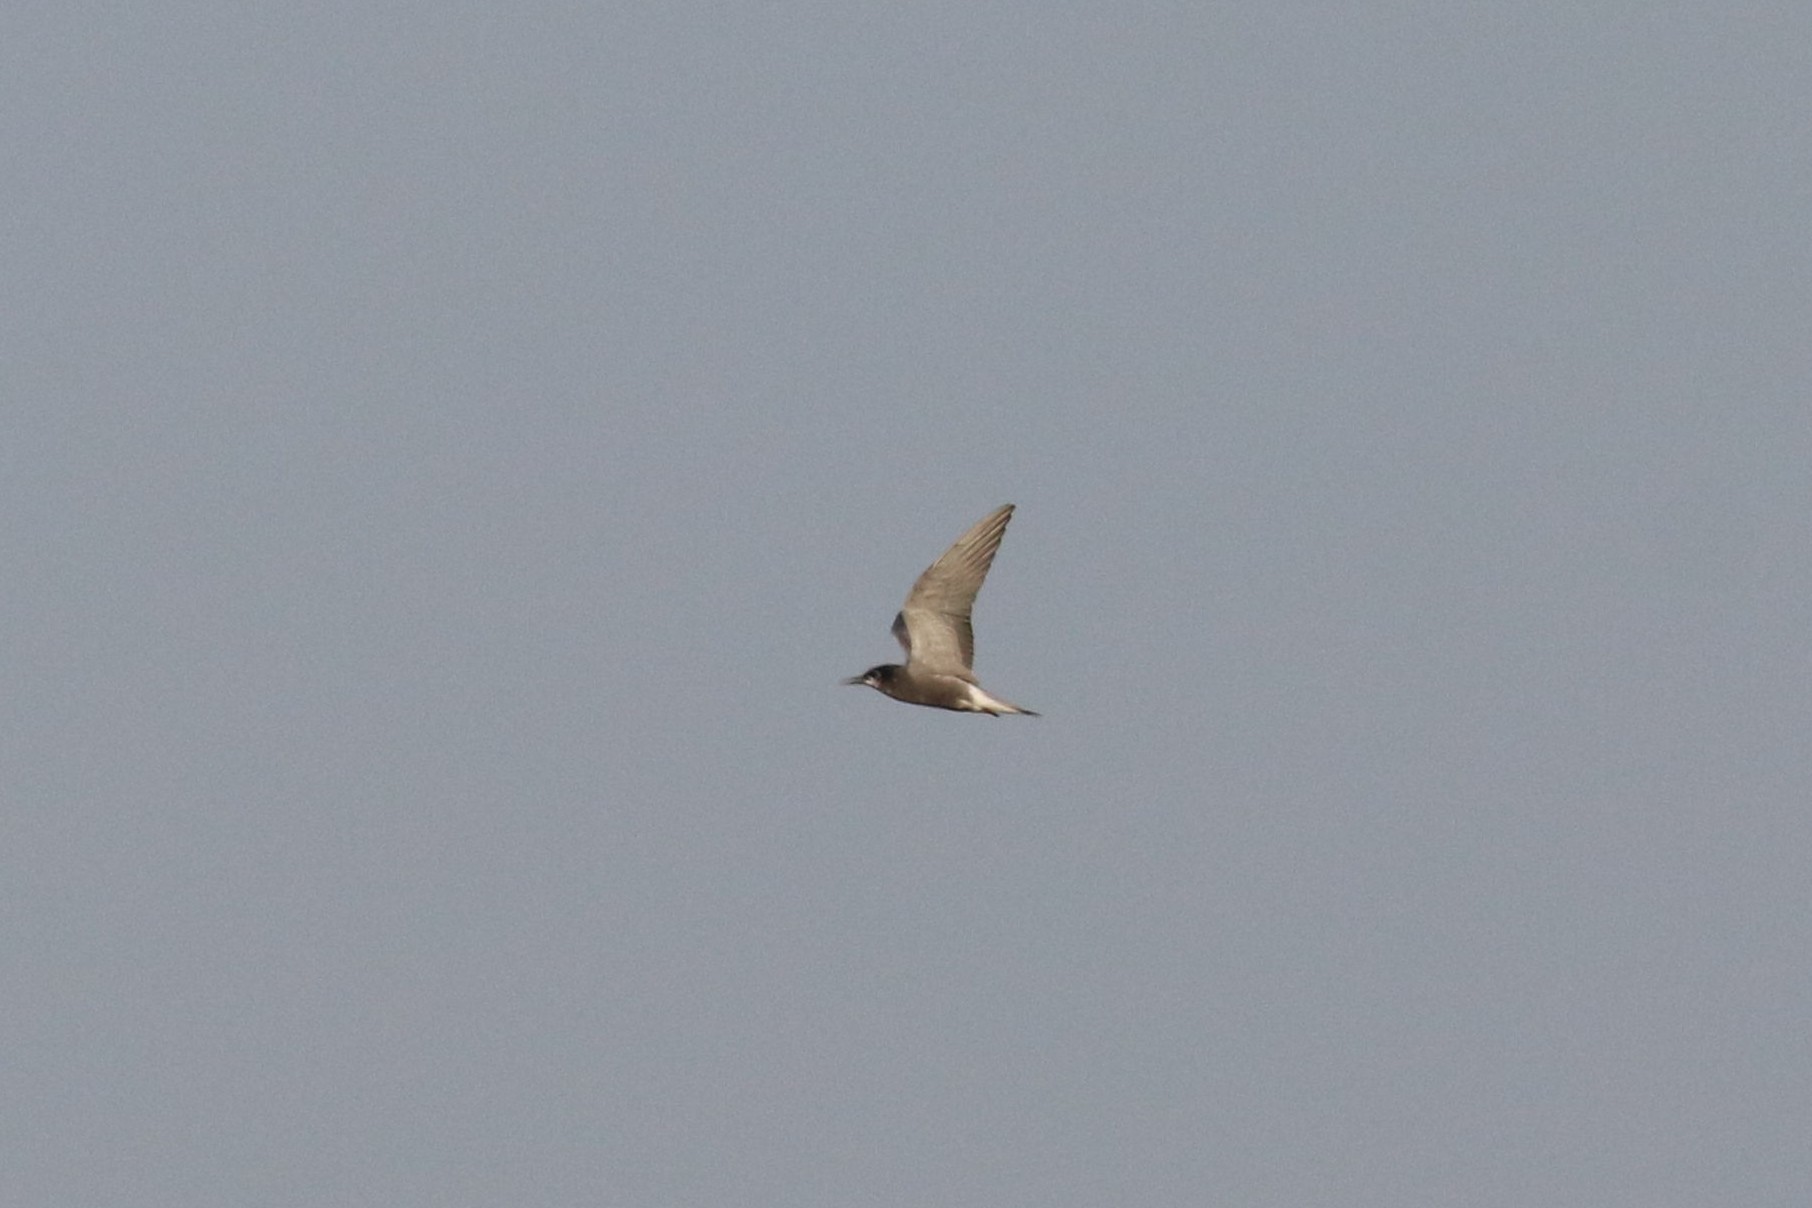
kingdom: Animalia
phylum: Chordata
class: Aves
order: Charadriiformes
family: Laridae
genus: Chlidonias
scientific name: Chlidonias niger
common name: Black tern
